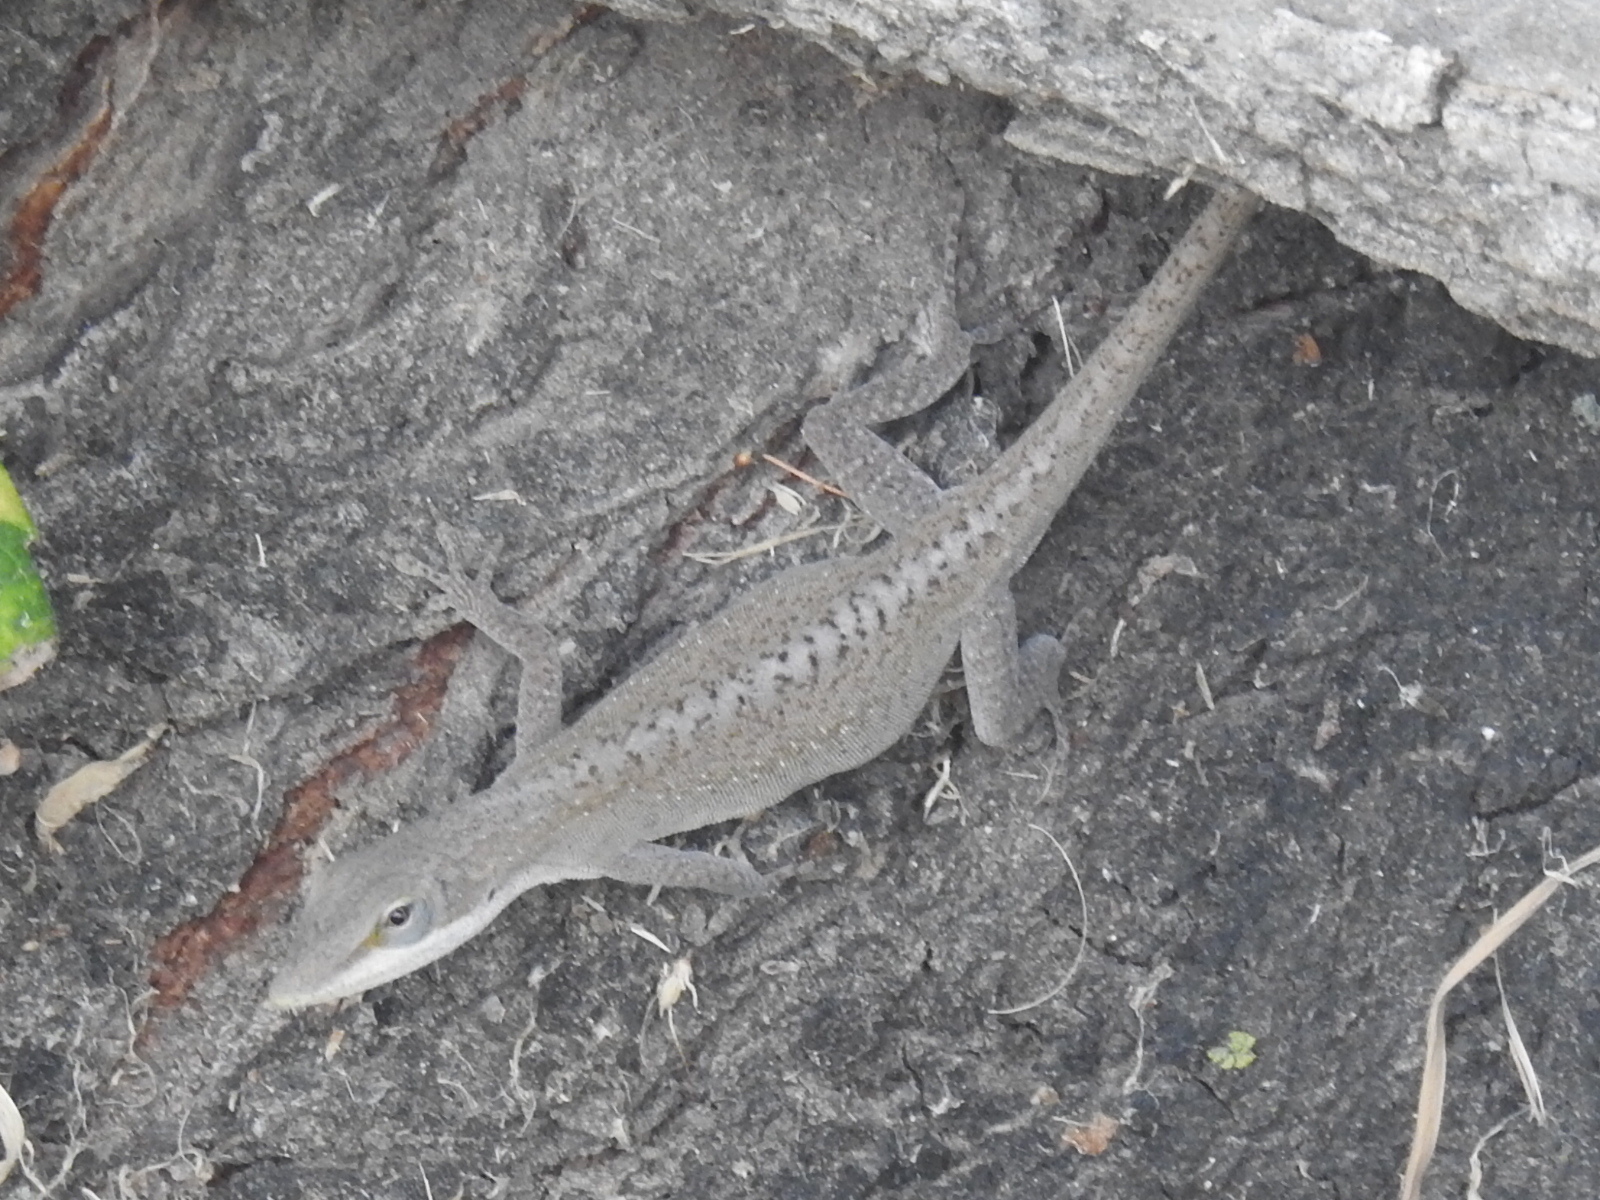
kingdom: Animalia
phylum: Chordata
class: Squamata
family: Dactyloidae
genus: Anolis
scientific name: Anolis carolinensis
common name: Green anole
